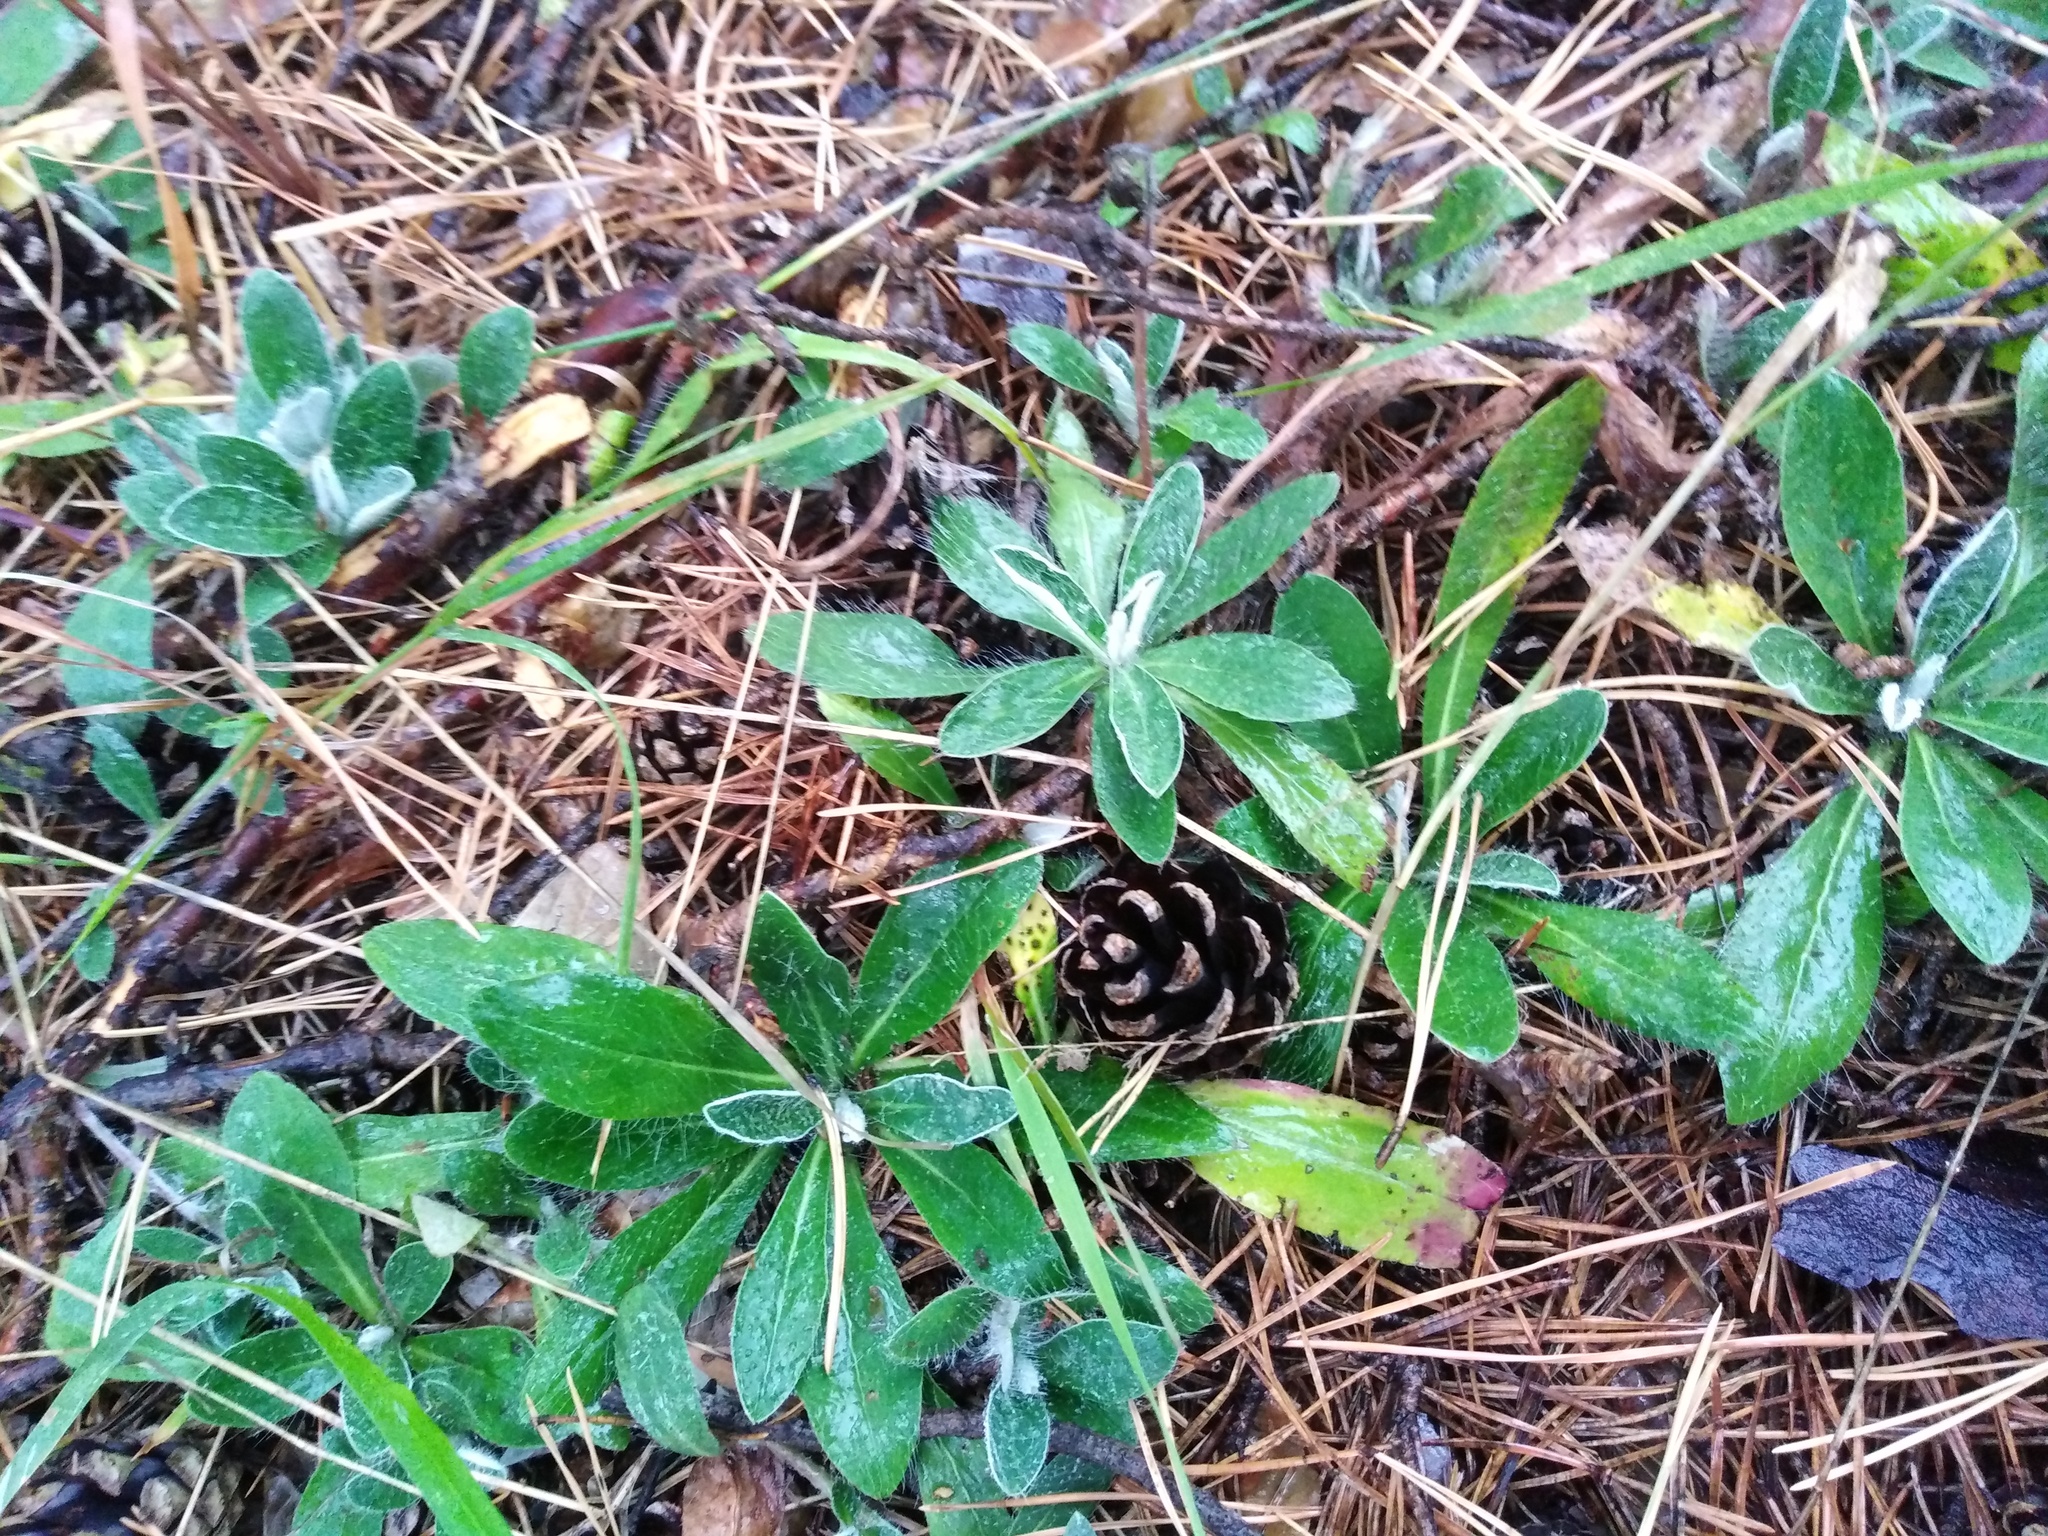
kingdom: Plantae
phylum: Tracheophyta
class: Magnoliopsida
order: Asterales
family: Asteraceae
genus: Pilosella
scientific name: Pilosella officinarum
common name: Mouse-ear hawkweed
